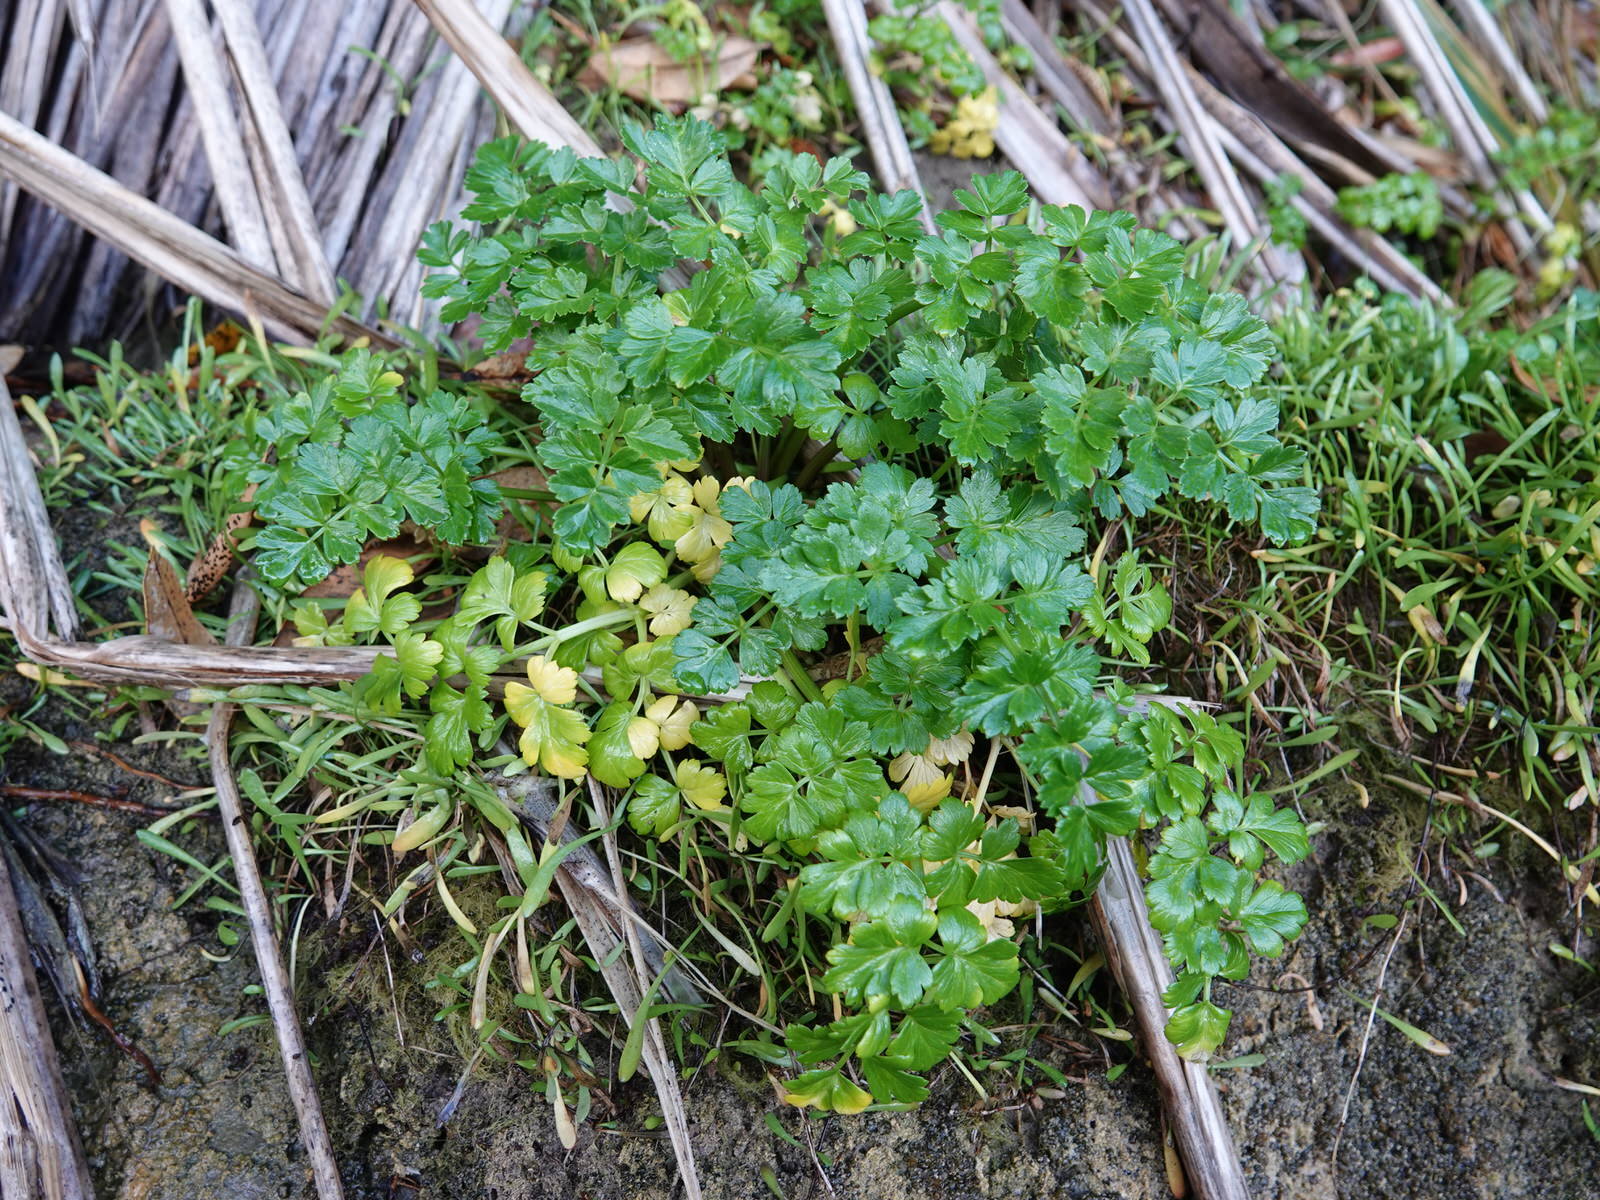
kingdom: Plantae
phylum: Tracheophyta
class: Magnoliopsida
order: Apiales
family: Apiaceae
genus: Apium
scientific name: Apium prostratum
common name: Prostrate marshwort
